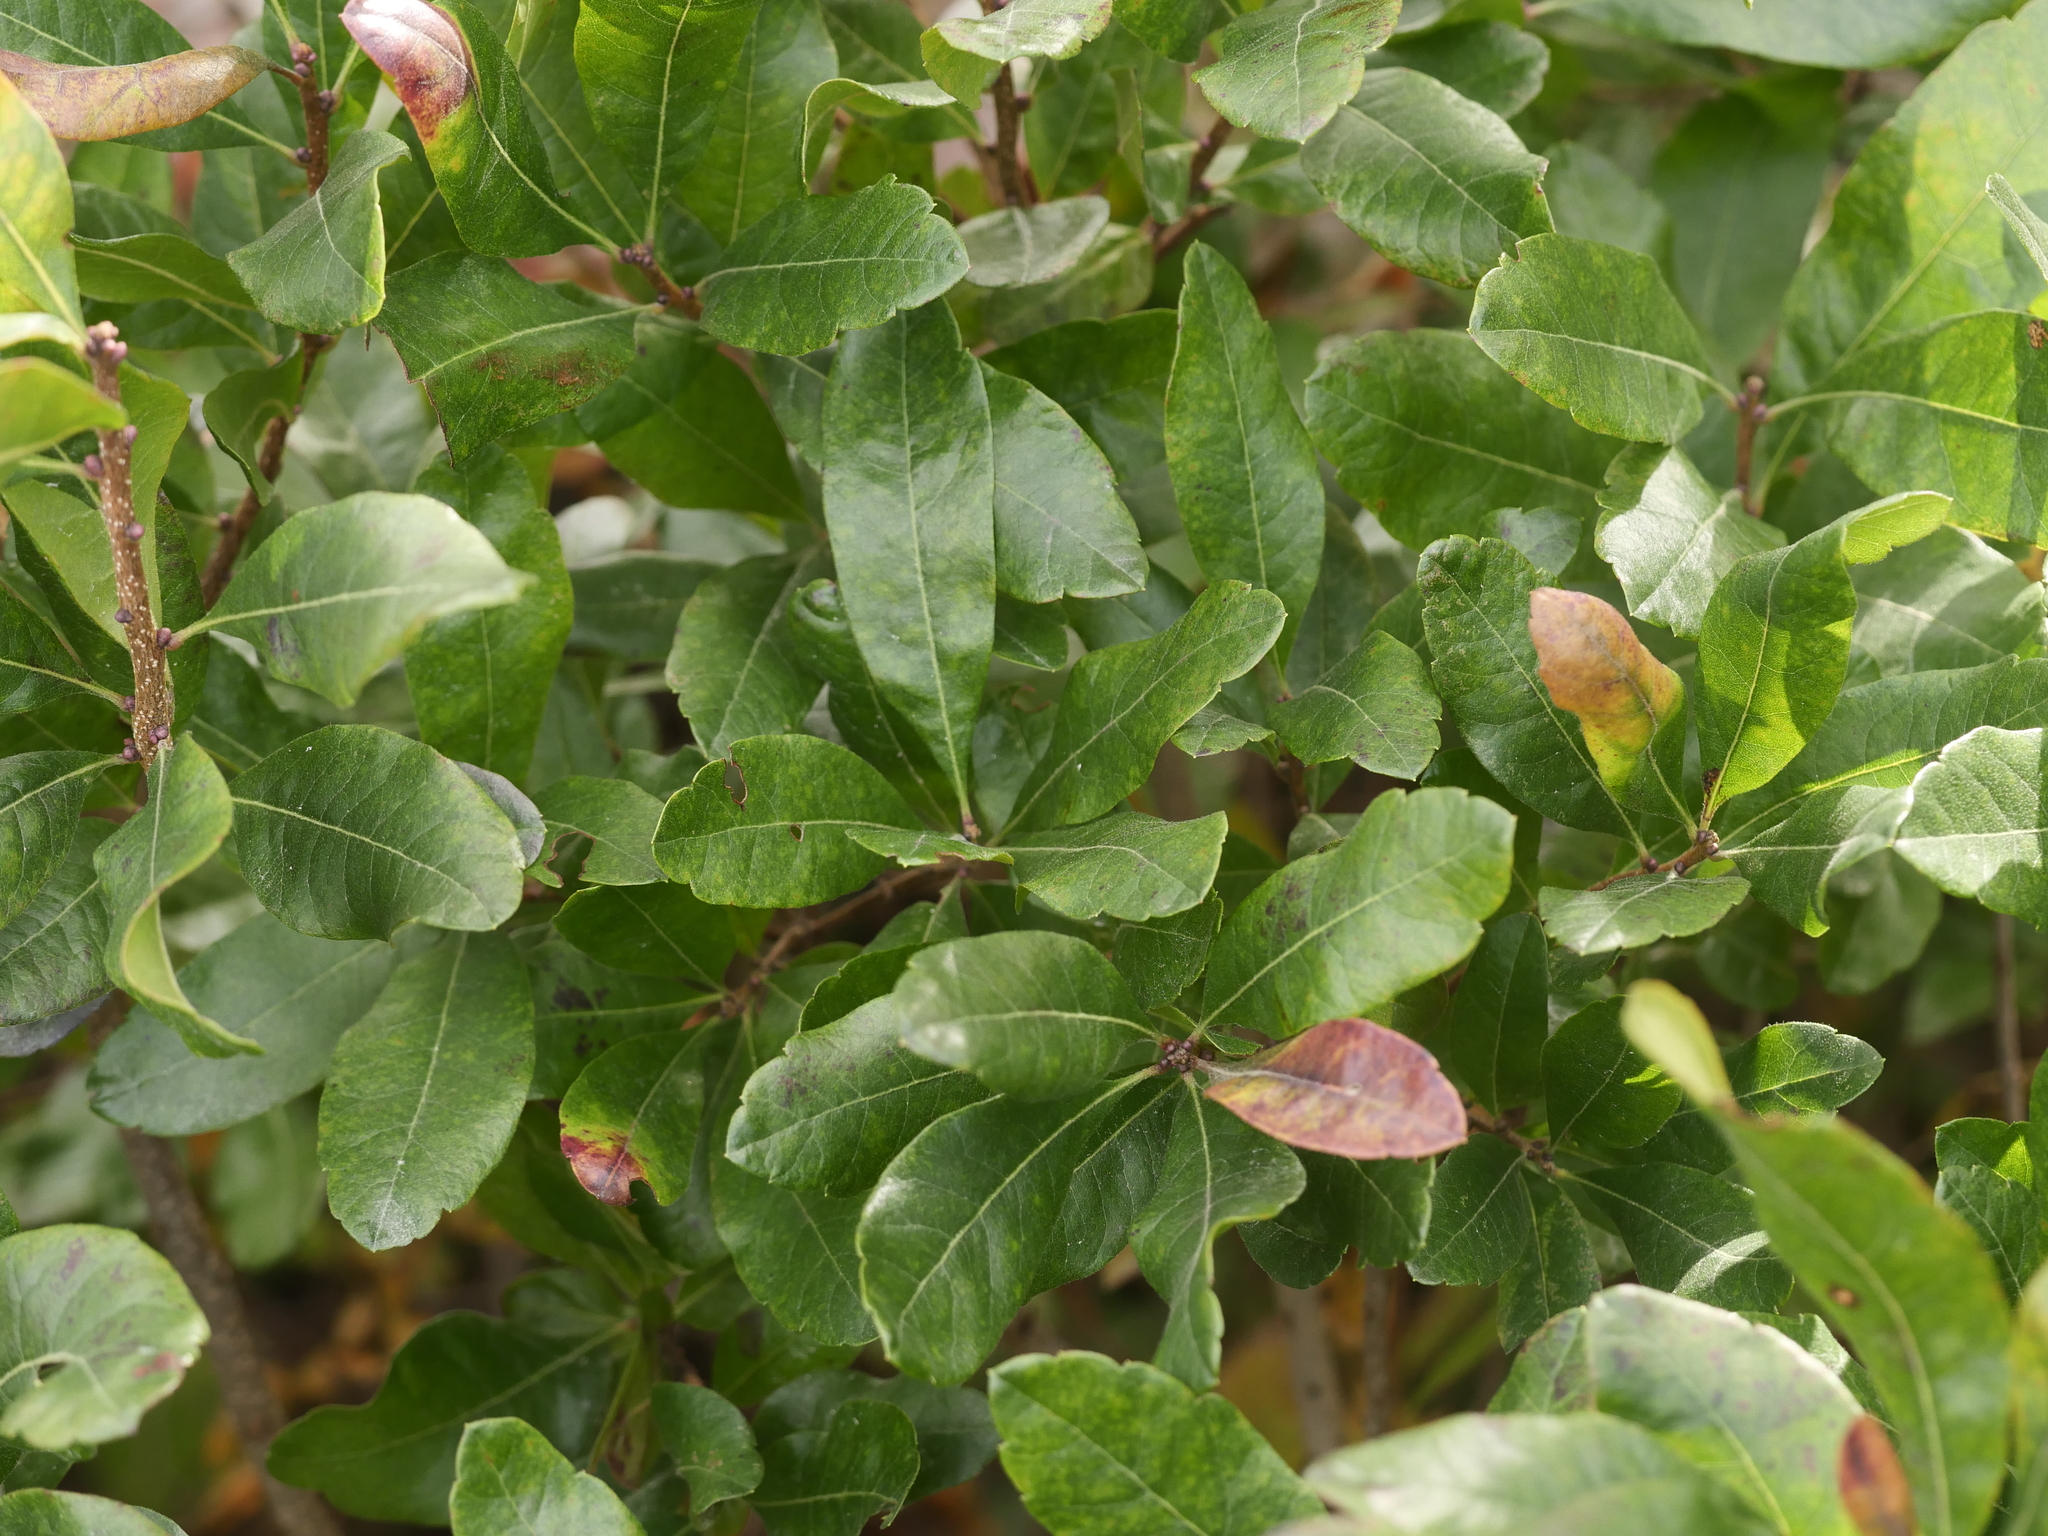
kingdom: Plantae
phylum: Tracheophyta
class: Magnoliopsida
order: Fagales
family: Myricaceae
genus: Morella
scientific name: Morella pensylvanica
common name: Northern bayberry
